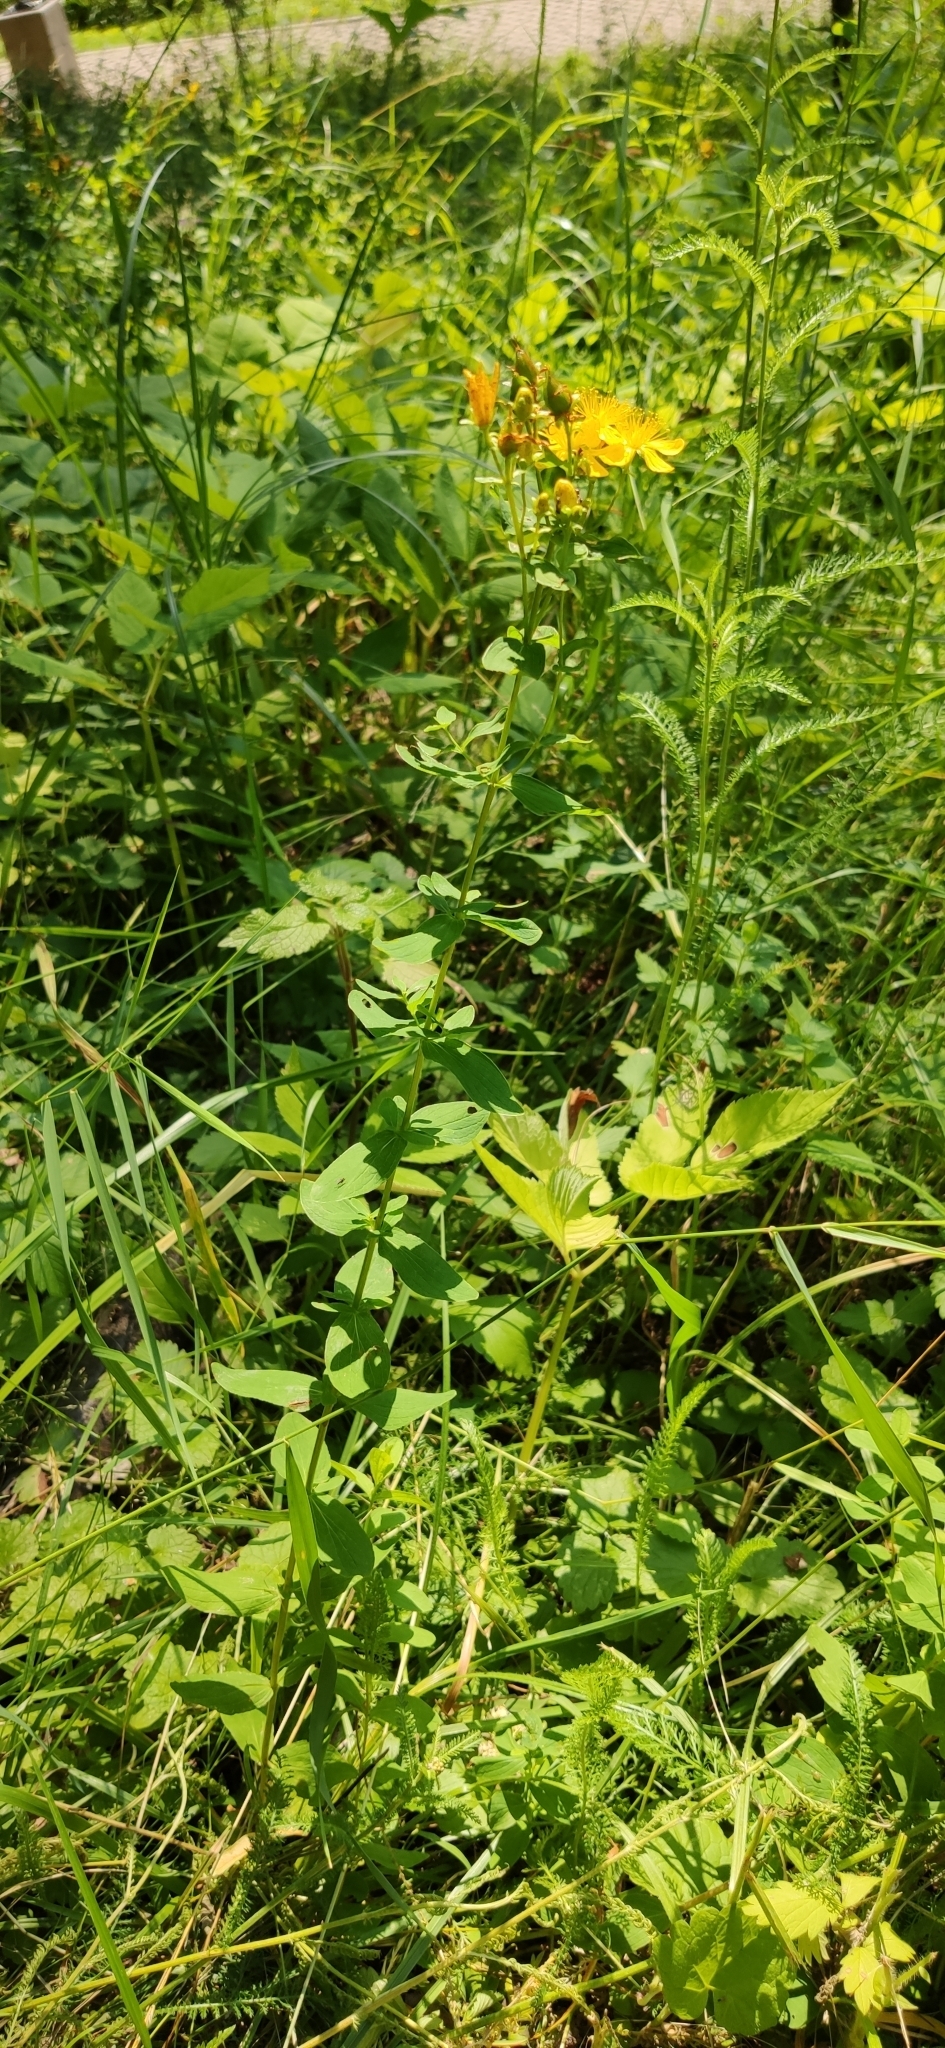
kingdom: Plantae
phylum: Tracheophyta
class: Magnoliopsida
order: Malpighiales
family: Hypericaceae
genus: Hypericum
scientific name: Hypericum maculatum
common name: Imperforate st. john's-wort
